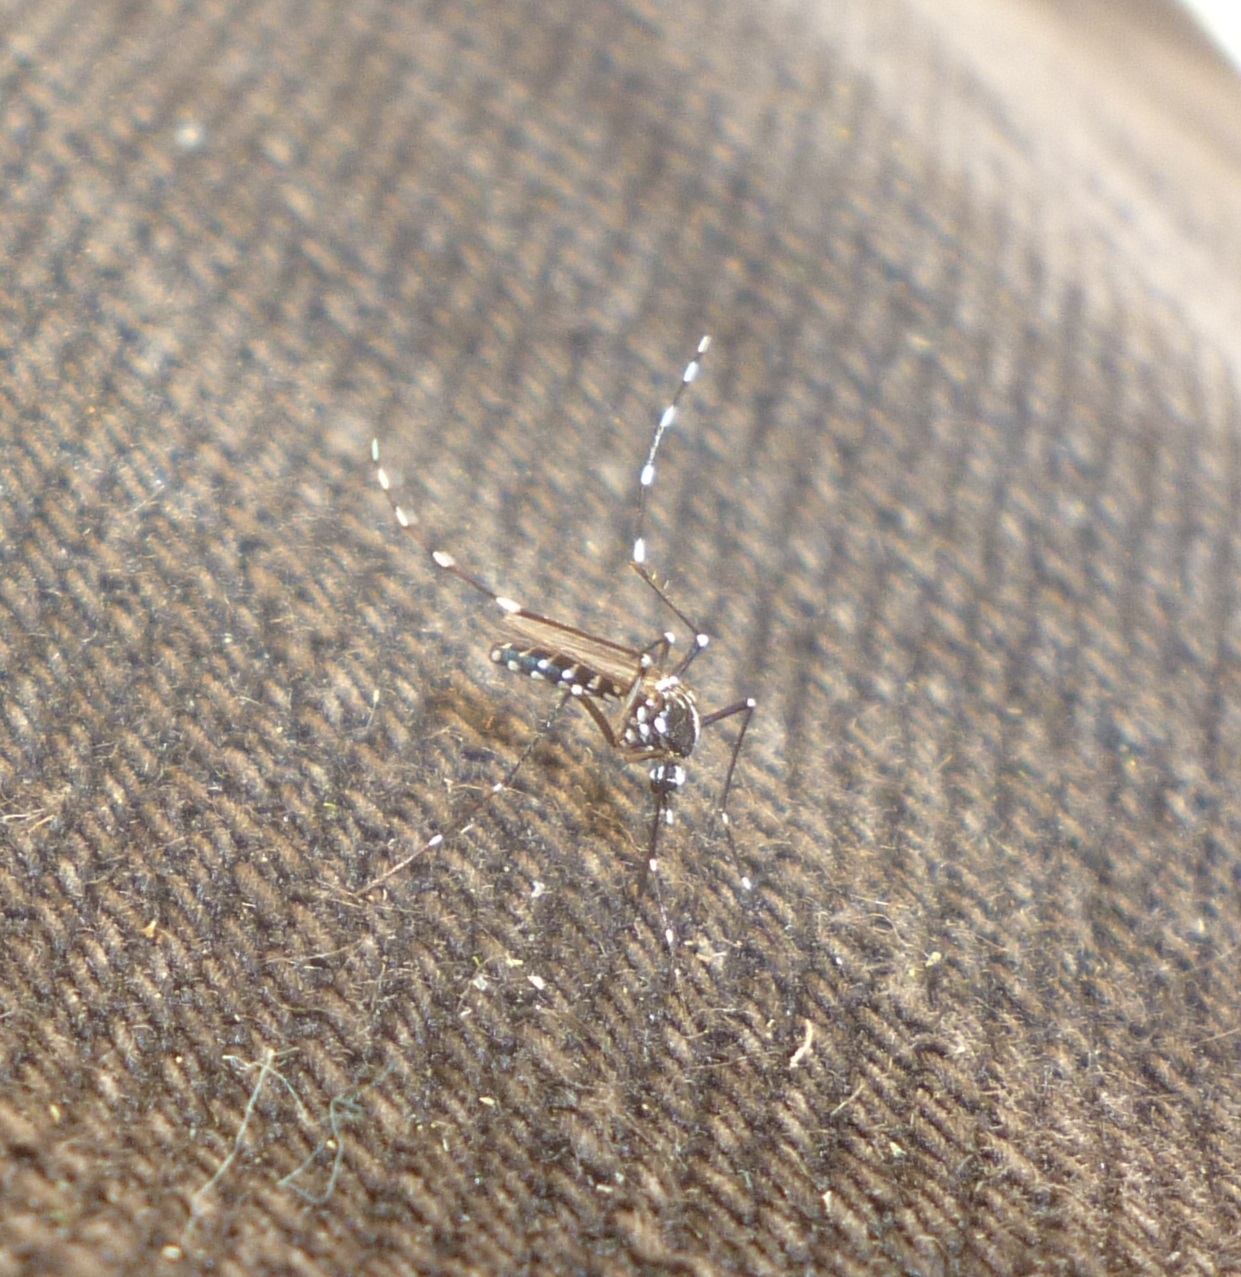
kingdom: Animalia
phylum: Arthropoda
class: Insecta
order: Diptera
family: Culicidae
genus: Aedes
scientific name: Aedes albopictus
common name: Tiger mosquito
